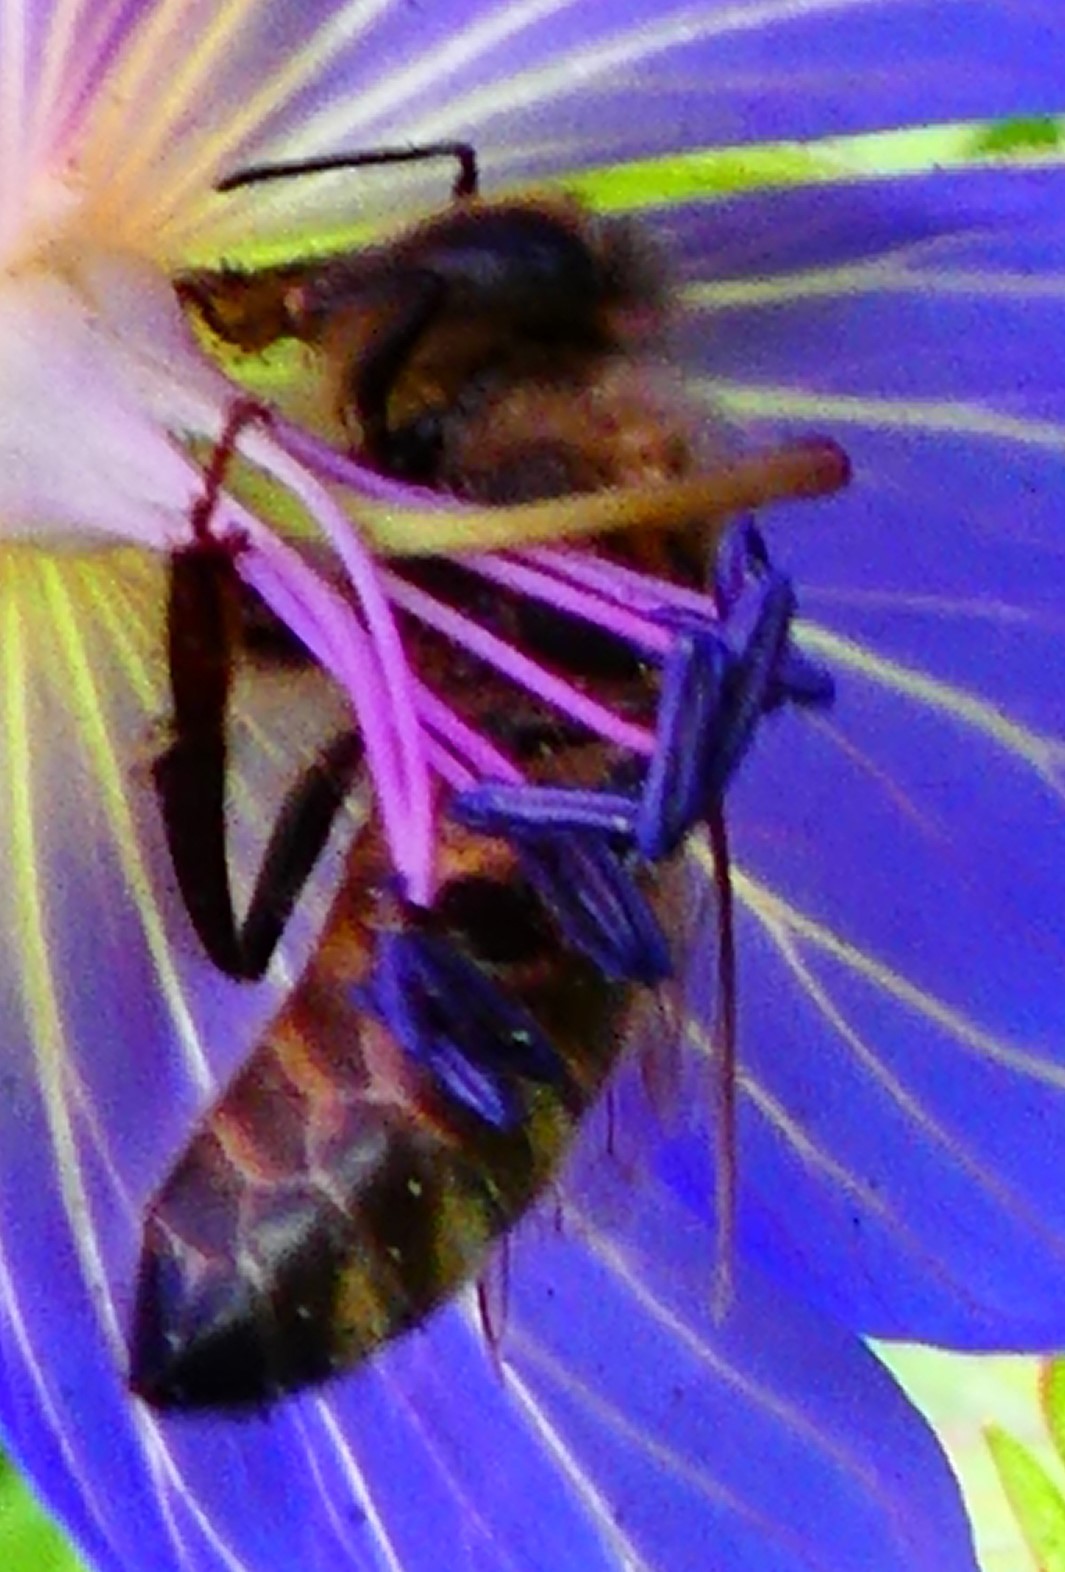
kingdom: Animalia
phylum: Arthropoda
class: Insecta
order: Hymenoptera
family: Apidae
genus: Apis
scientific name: Apis mellifera
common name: Honey bee
